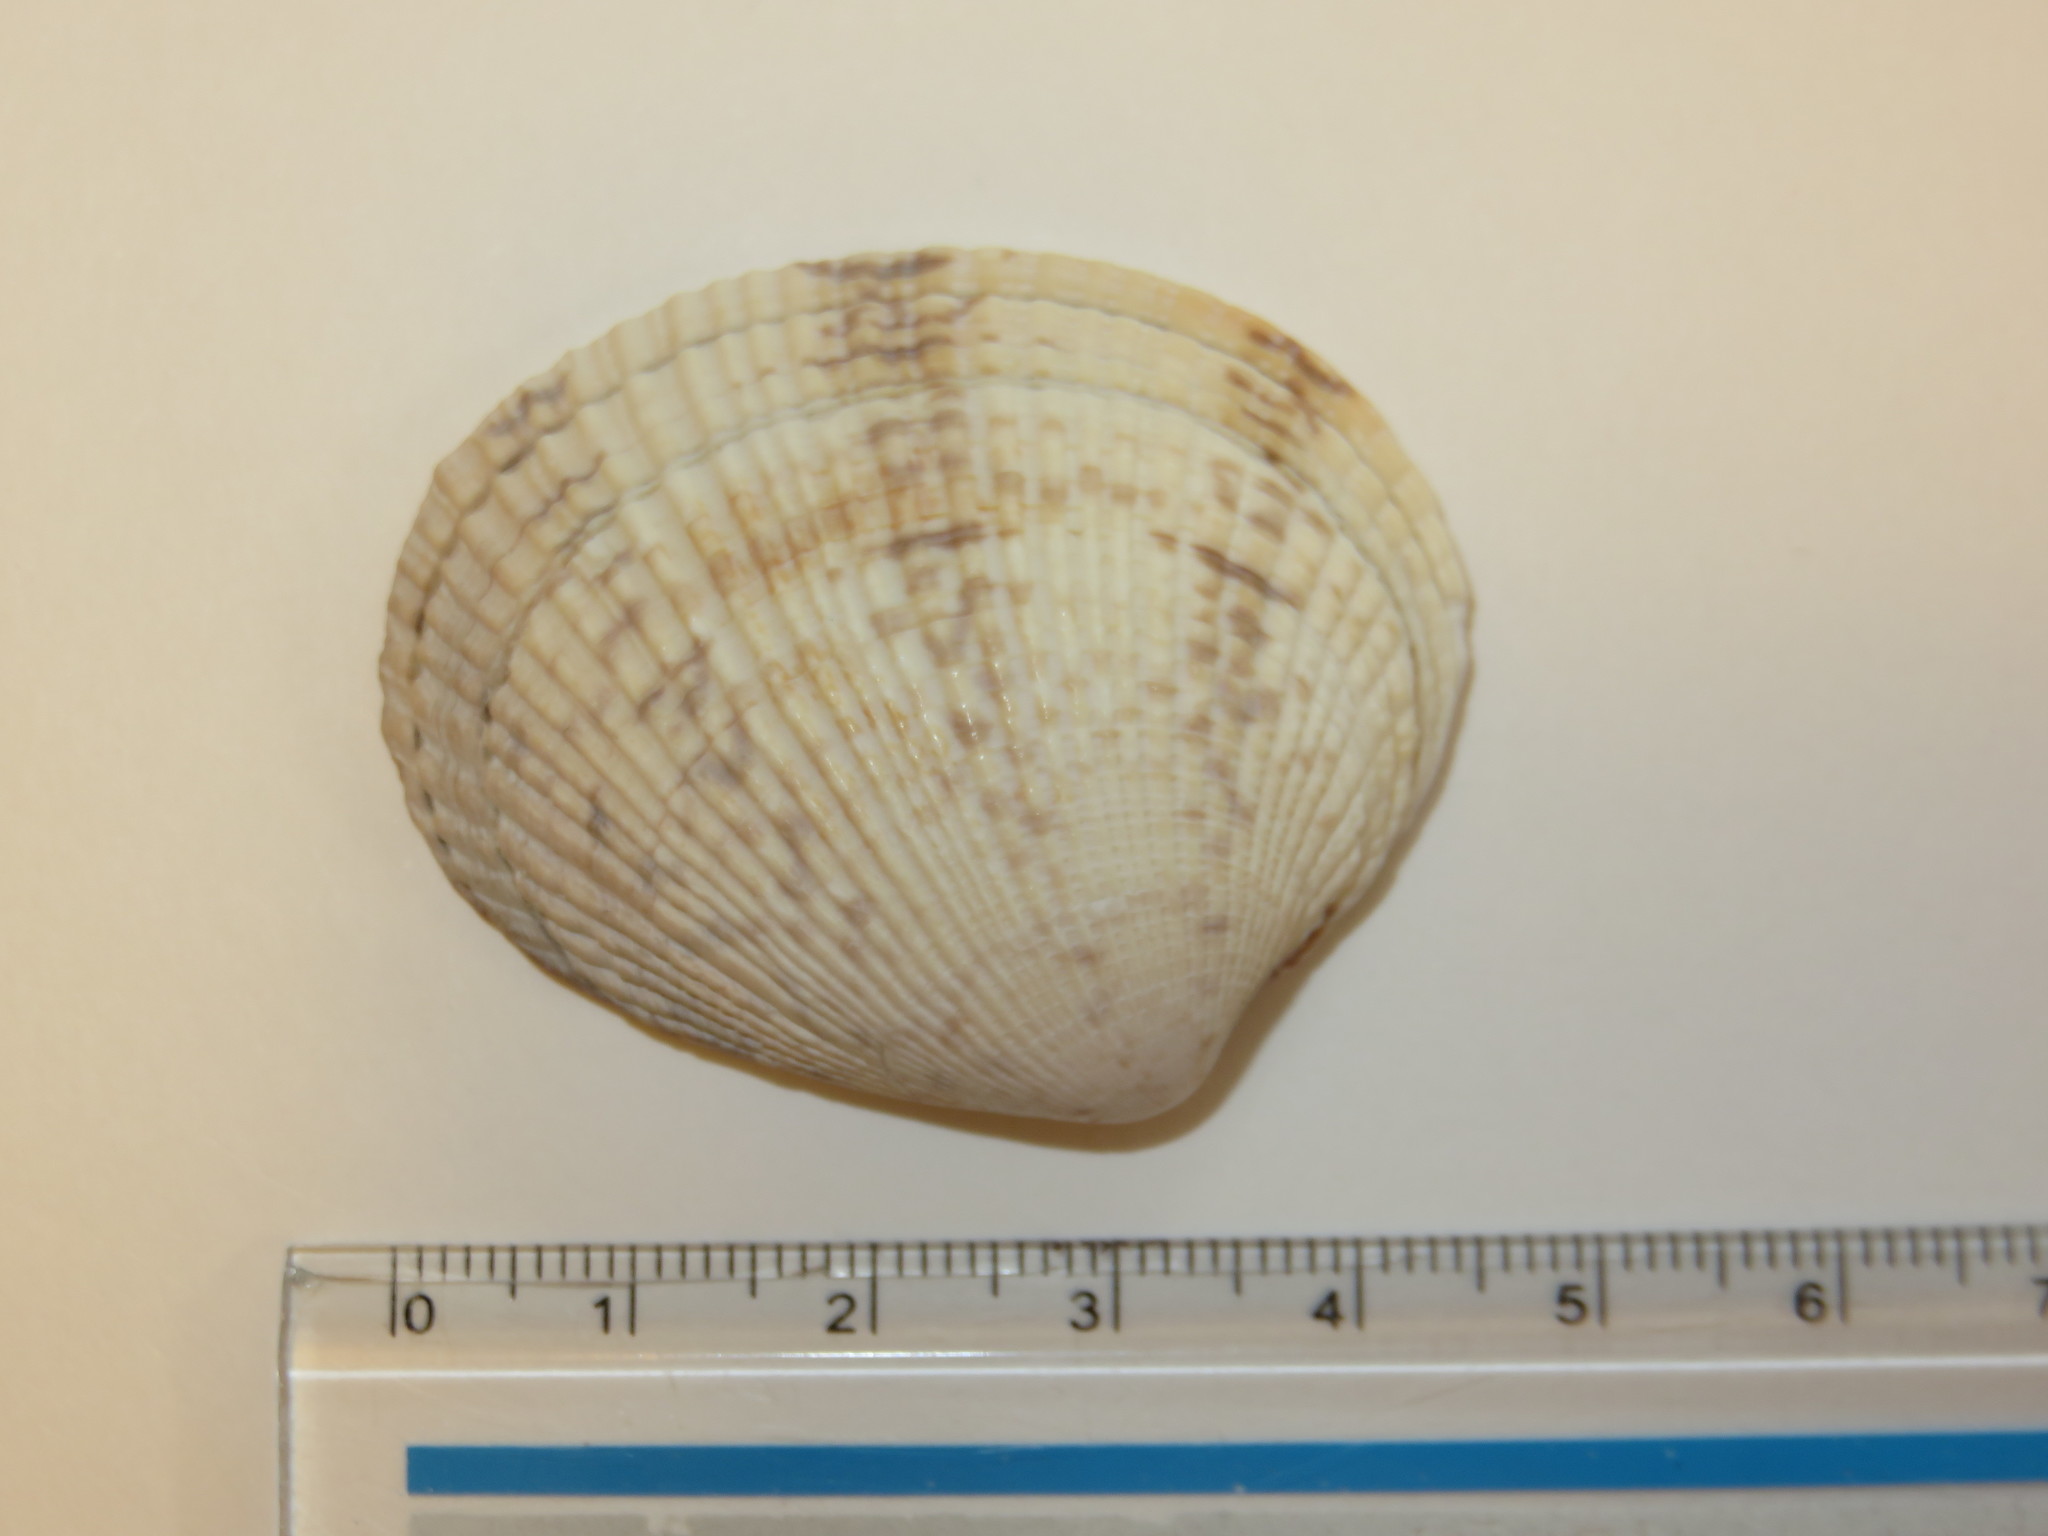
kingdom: Animalia
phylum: Mollusca
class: Bivalvia
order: Venerida
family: Veneridae
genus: Leukoma
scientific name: Leukoma jedoensis
